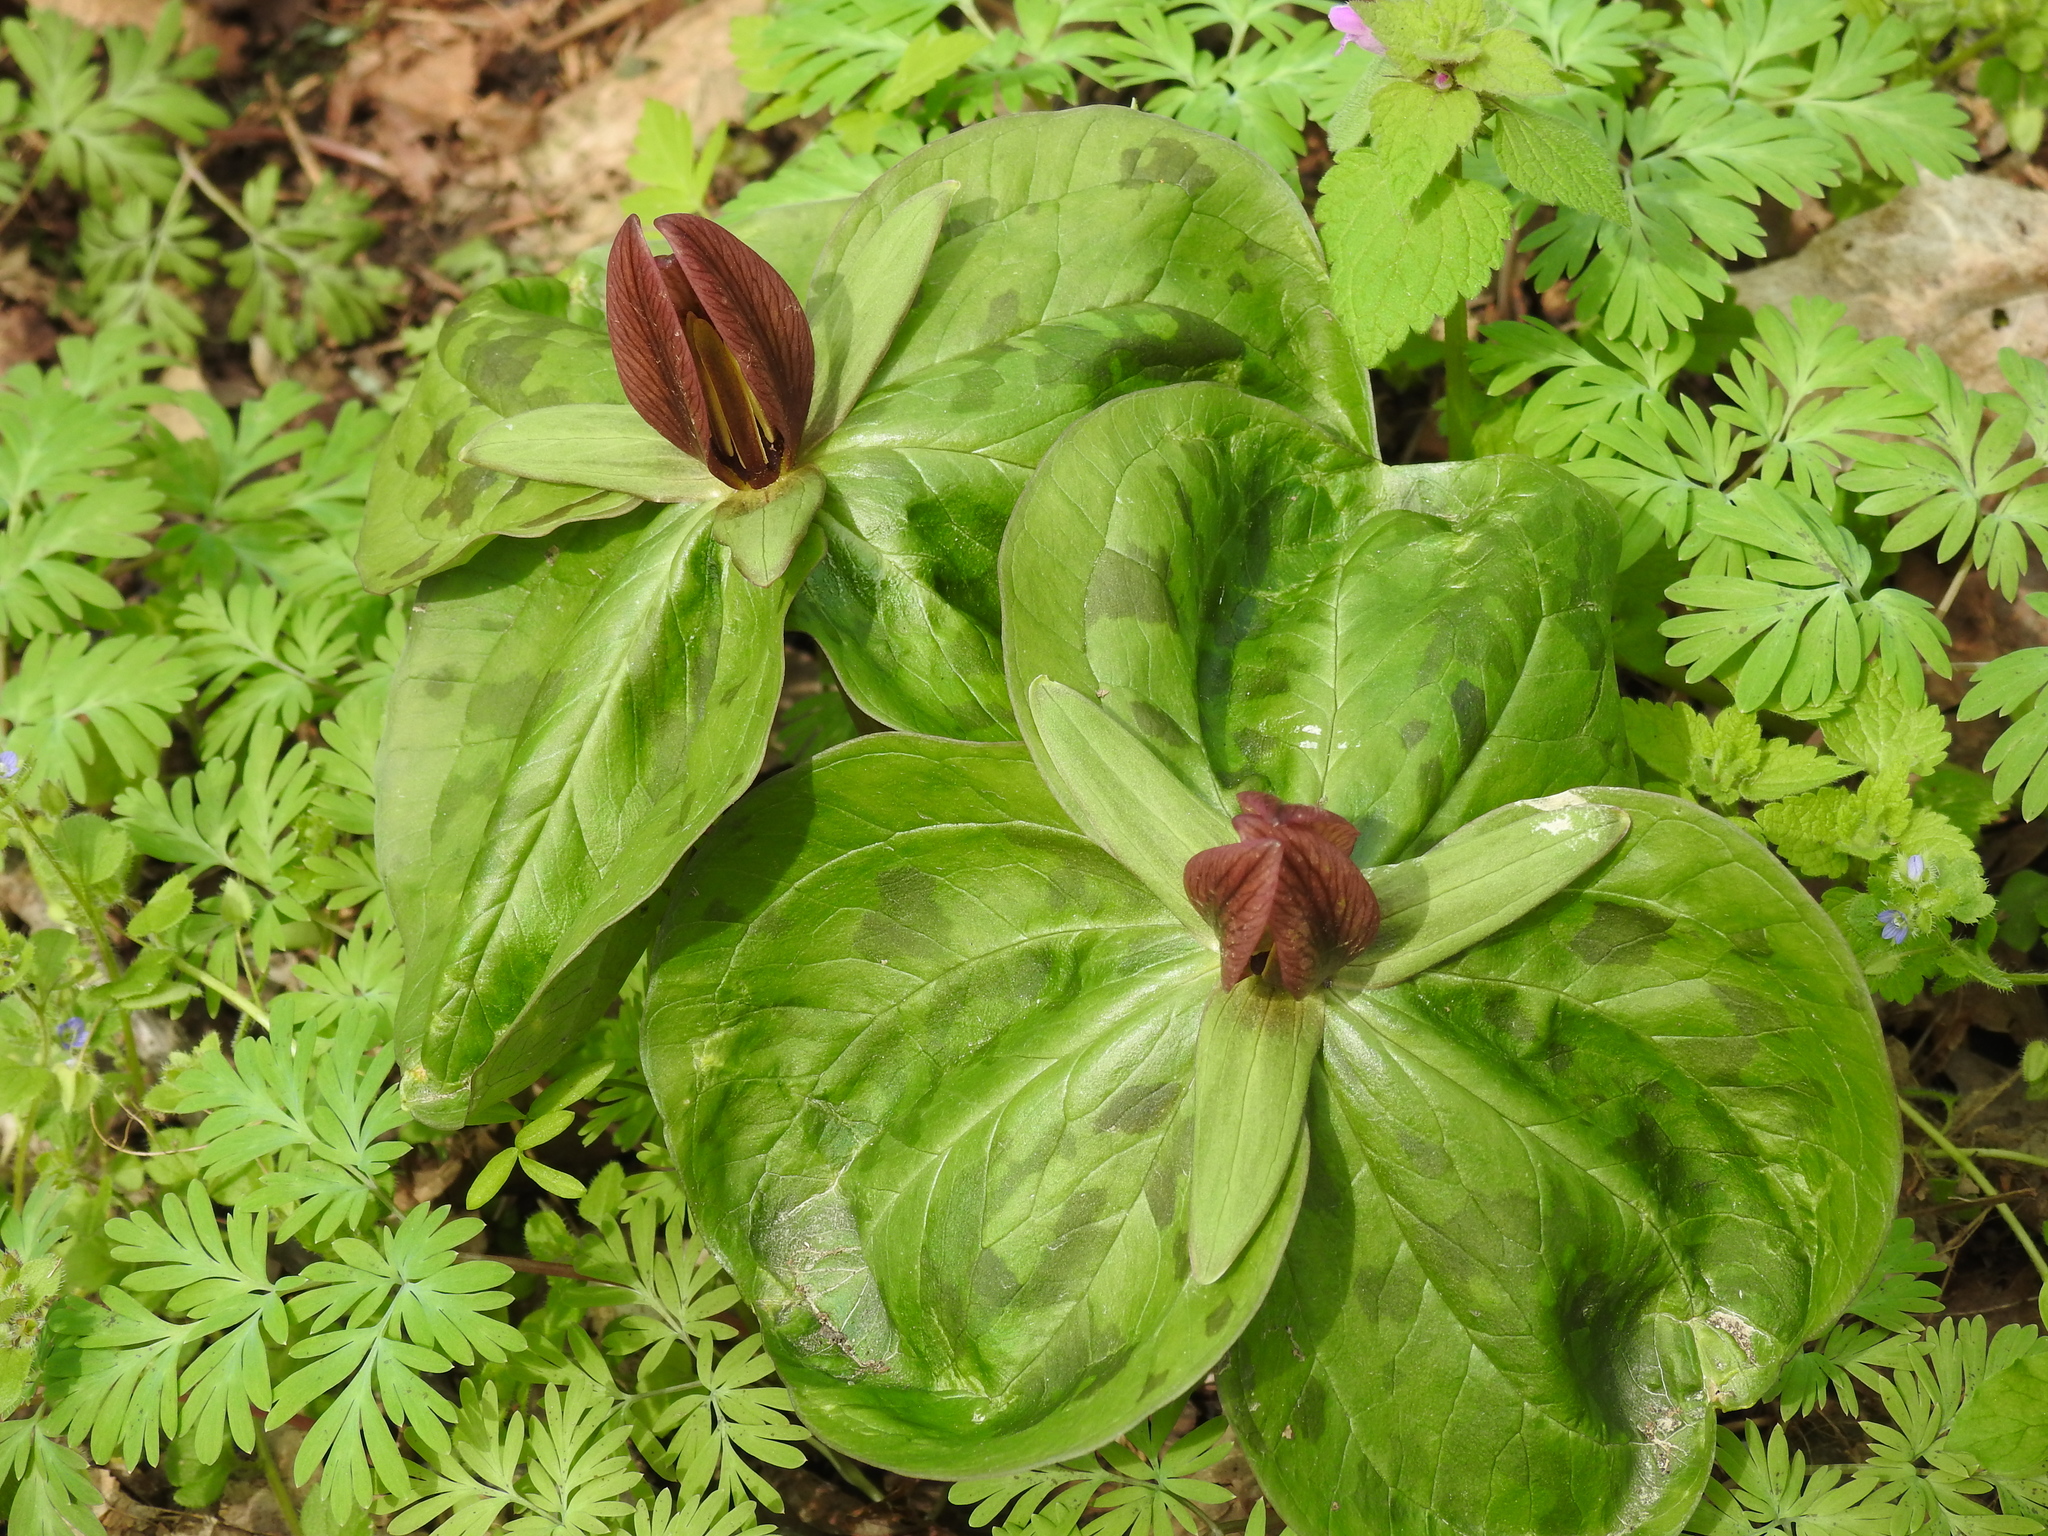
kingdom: Plantae
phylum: Tracheophyta
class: Liliopsida
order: Liliales
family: Melanthiaceae
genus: Trillium
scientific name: Trillium sessile
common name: Sessile trillium
